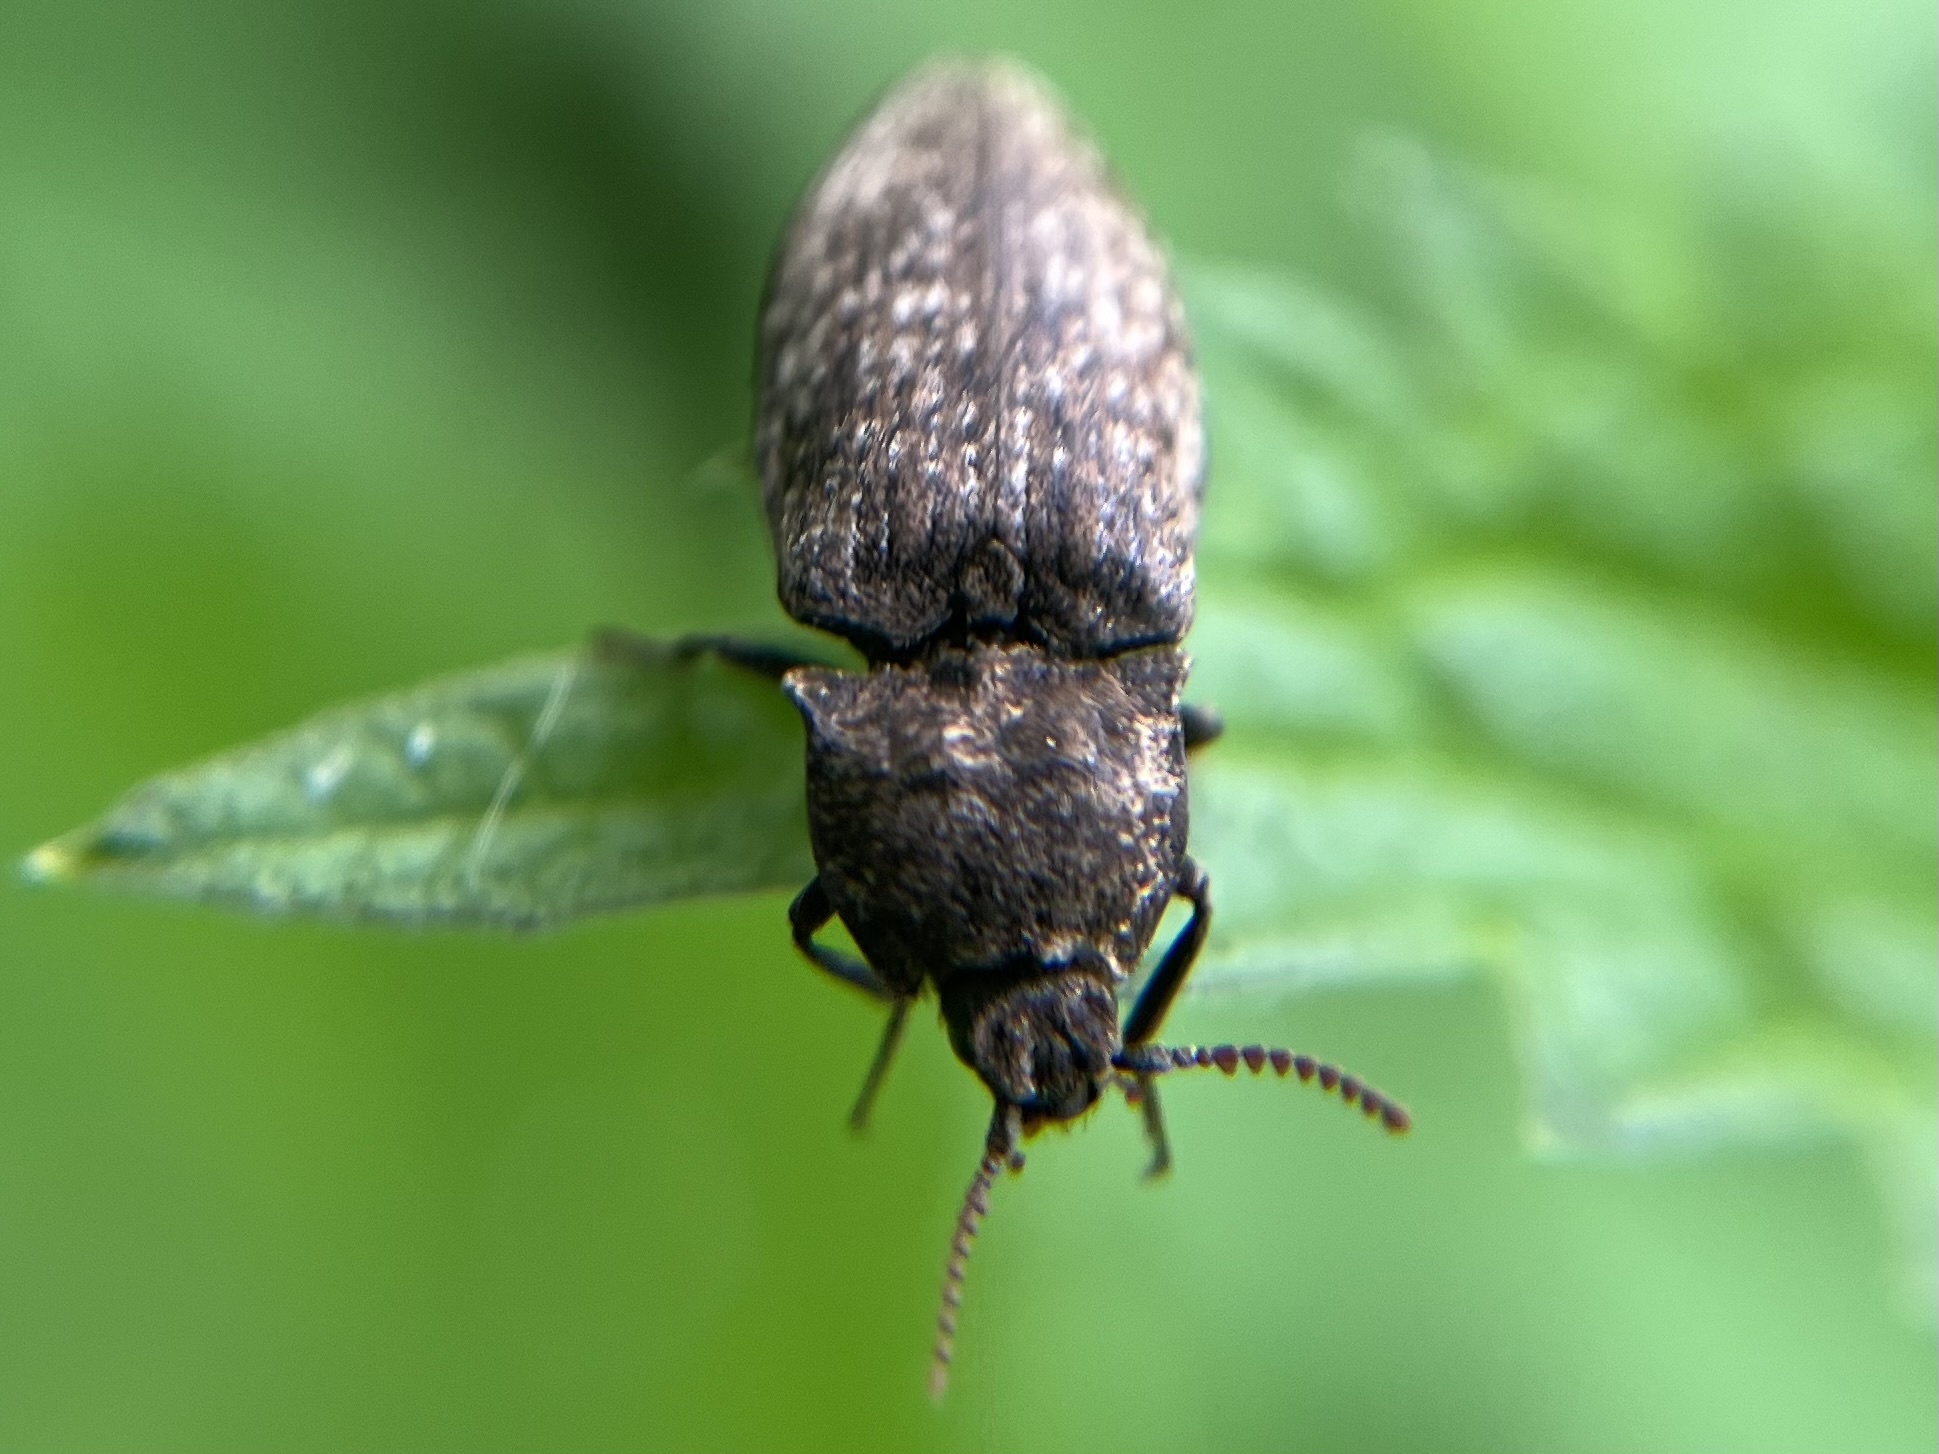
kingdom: Animalia
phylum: Arthropoda
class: Insecta
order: Coleoptera
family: Elateridae
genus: Agrypnus
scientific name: Agrypnus murinus
